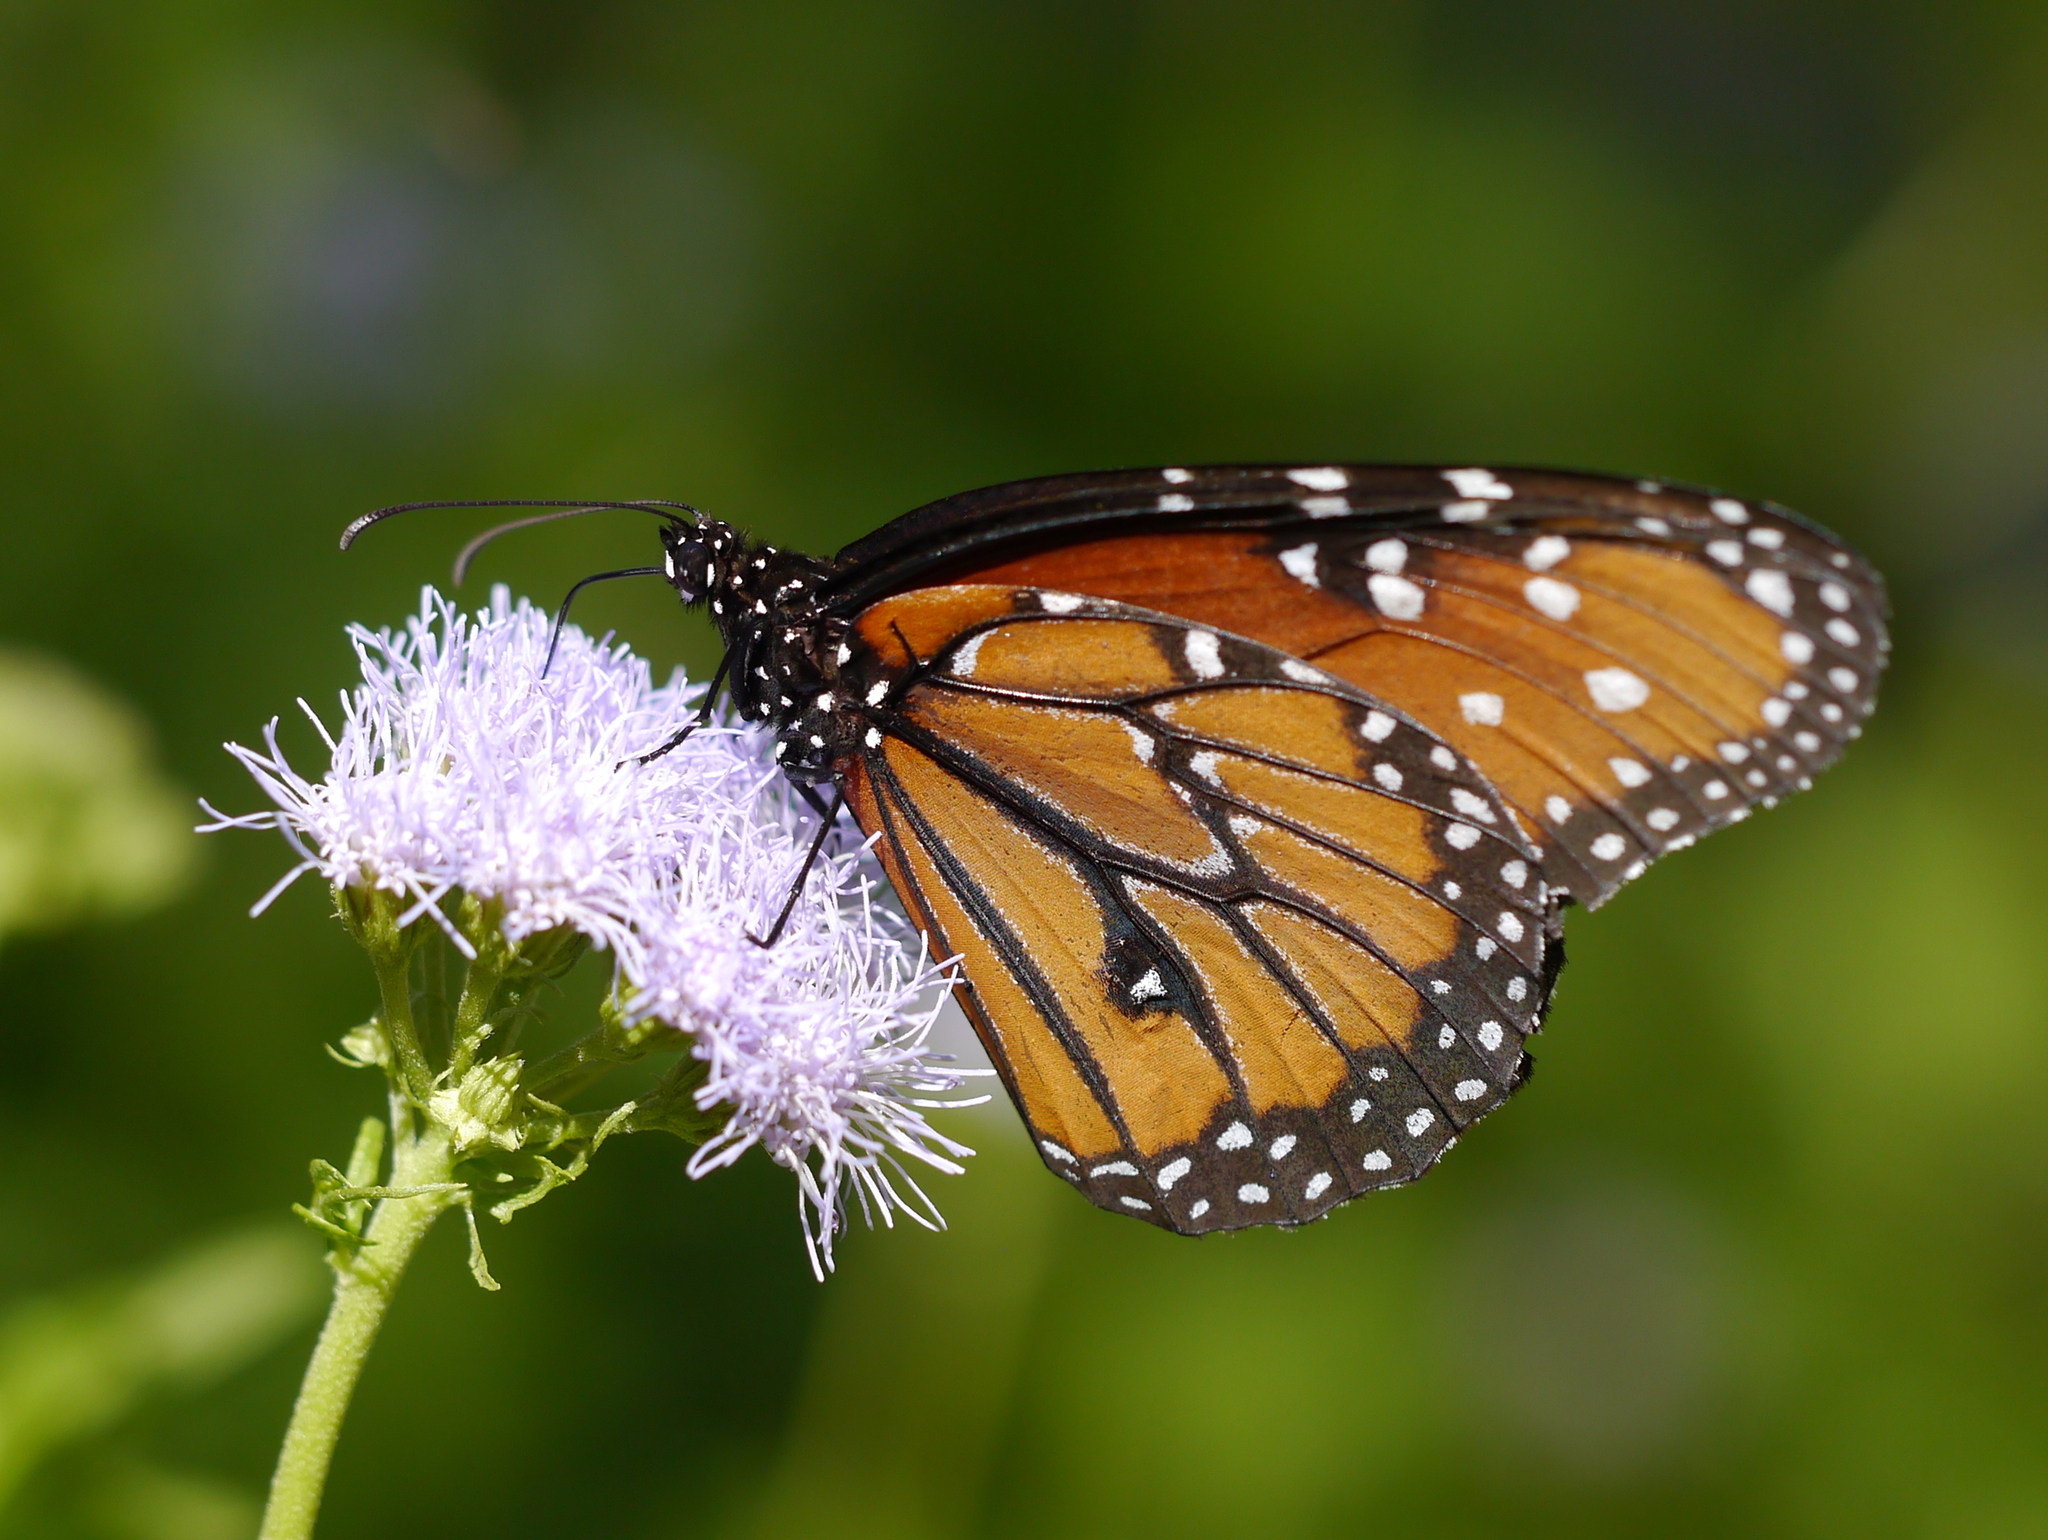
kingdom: Animalia
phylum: Arthropoda
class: Insecta
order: Lepidoptera
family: Nymphalidae
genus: Danaus
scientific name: Danaus gilippus
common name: Queen
